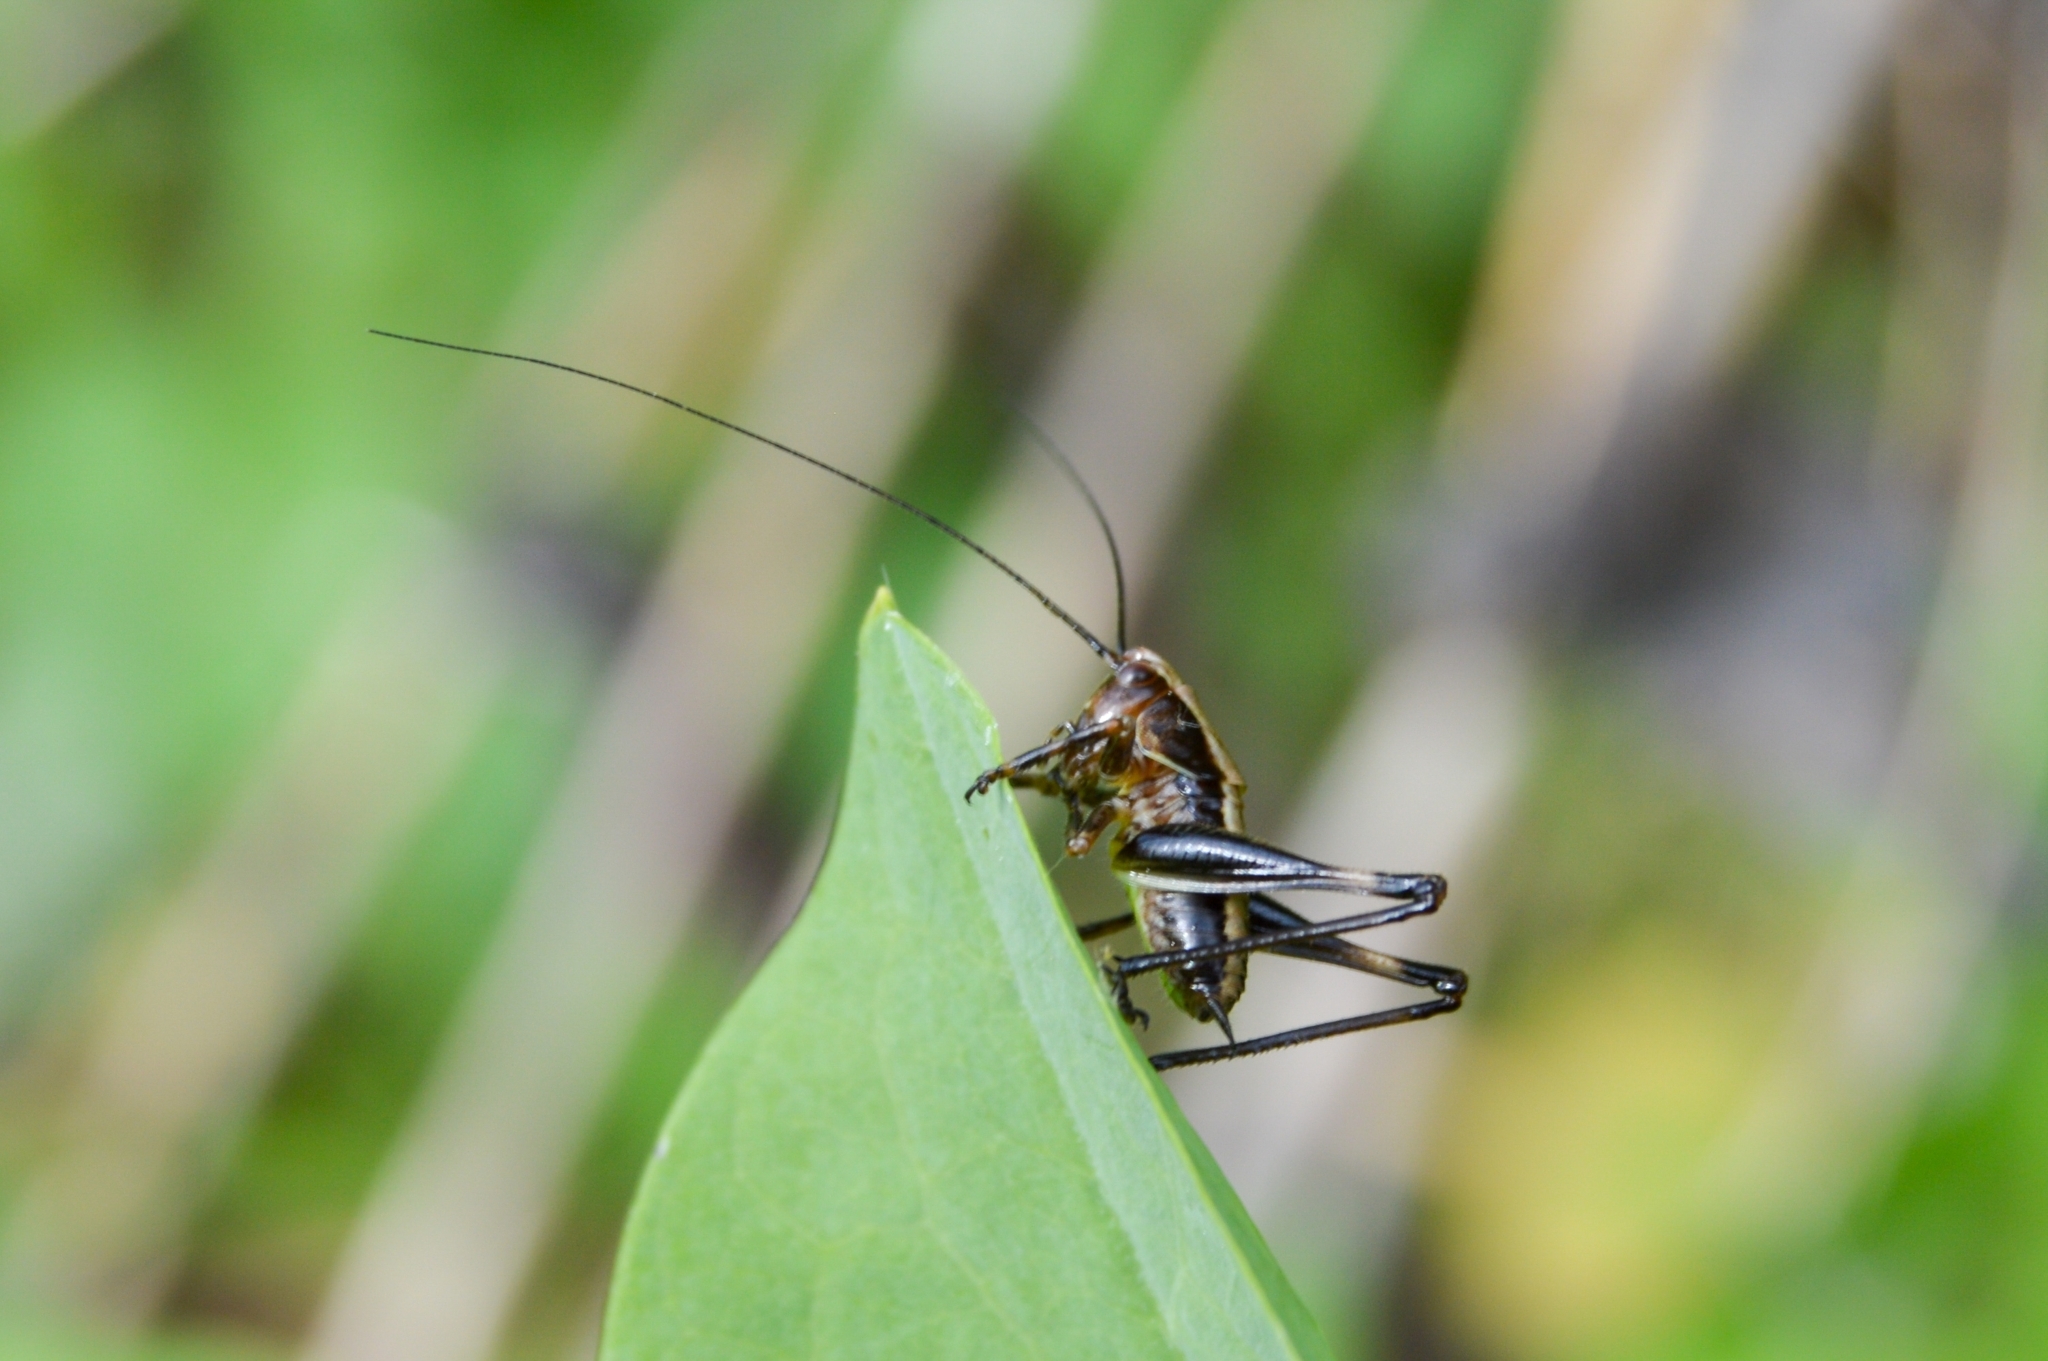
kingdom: Animalia
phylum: Arthropoda
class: Insecta
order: Orthoptera
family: Tettigoniidae
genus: Pholidoptera
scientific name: Pholidoptera griseoaptera
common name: Dark bush-cricket
